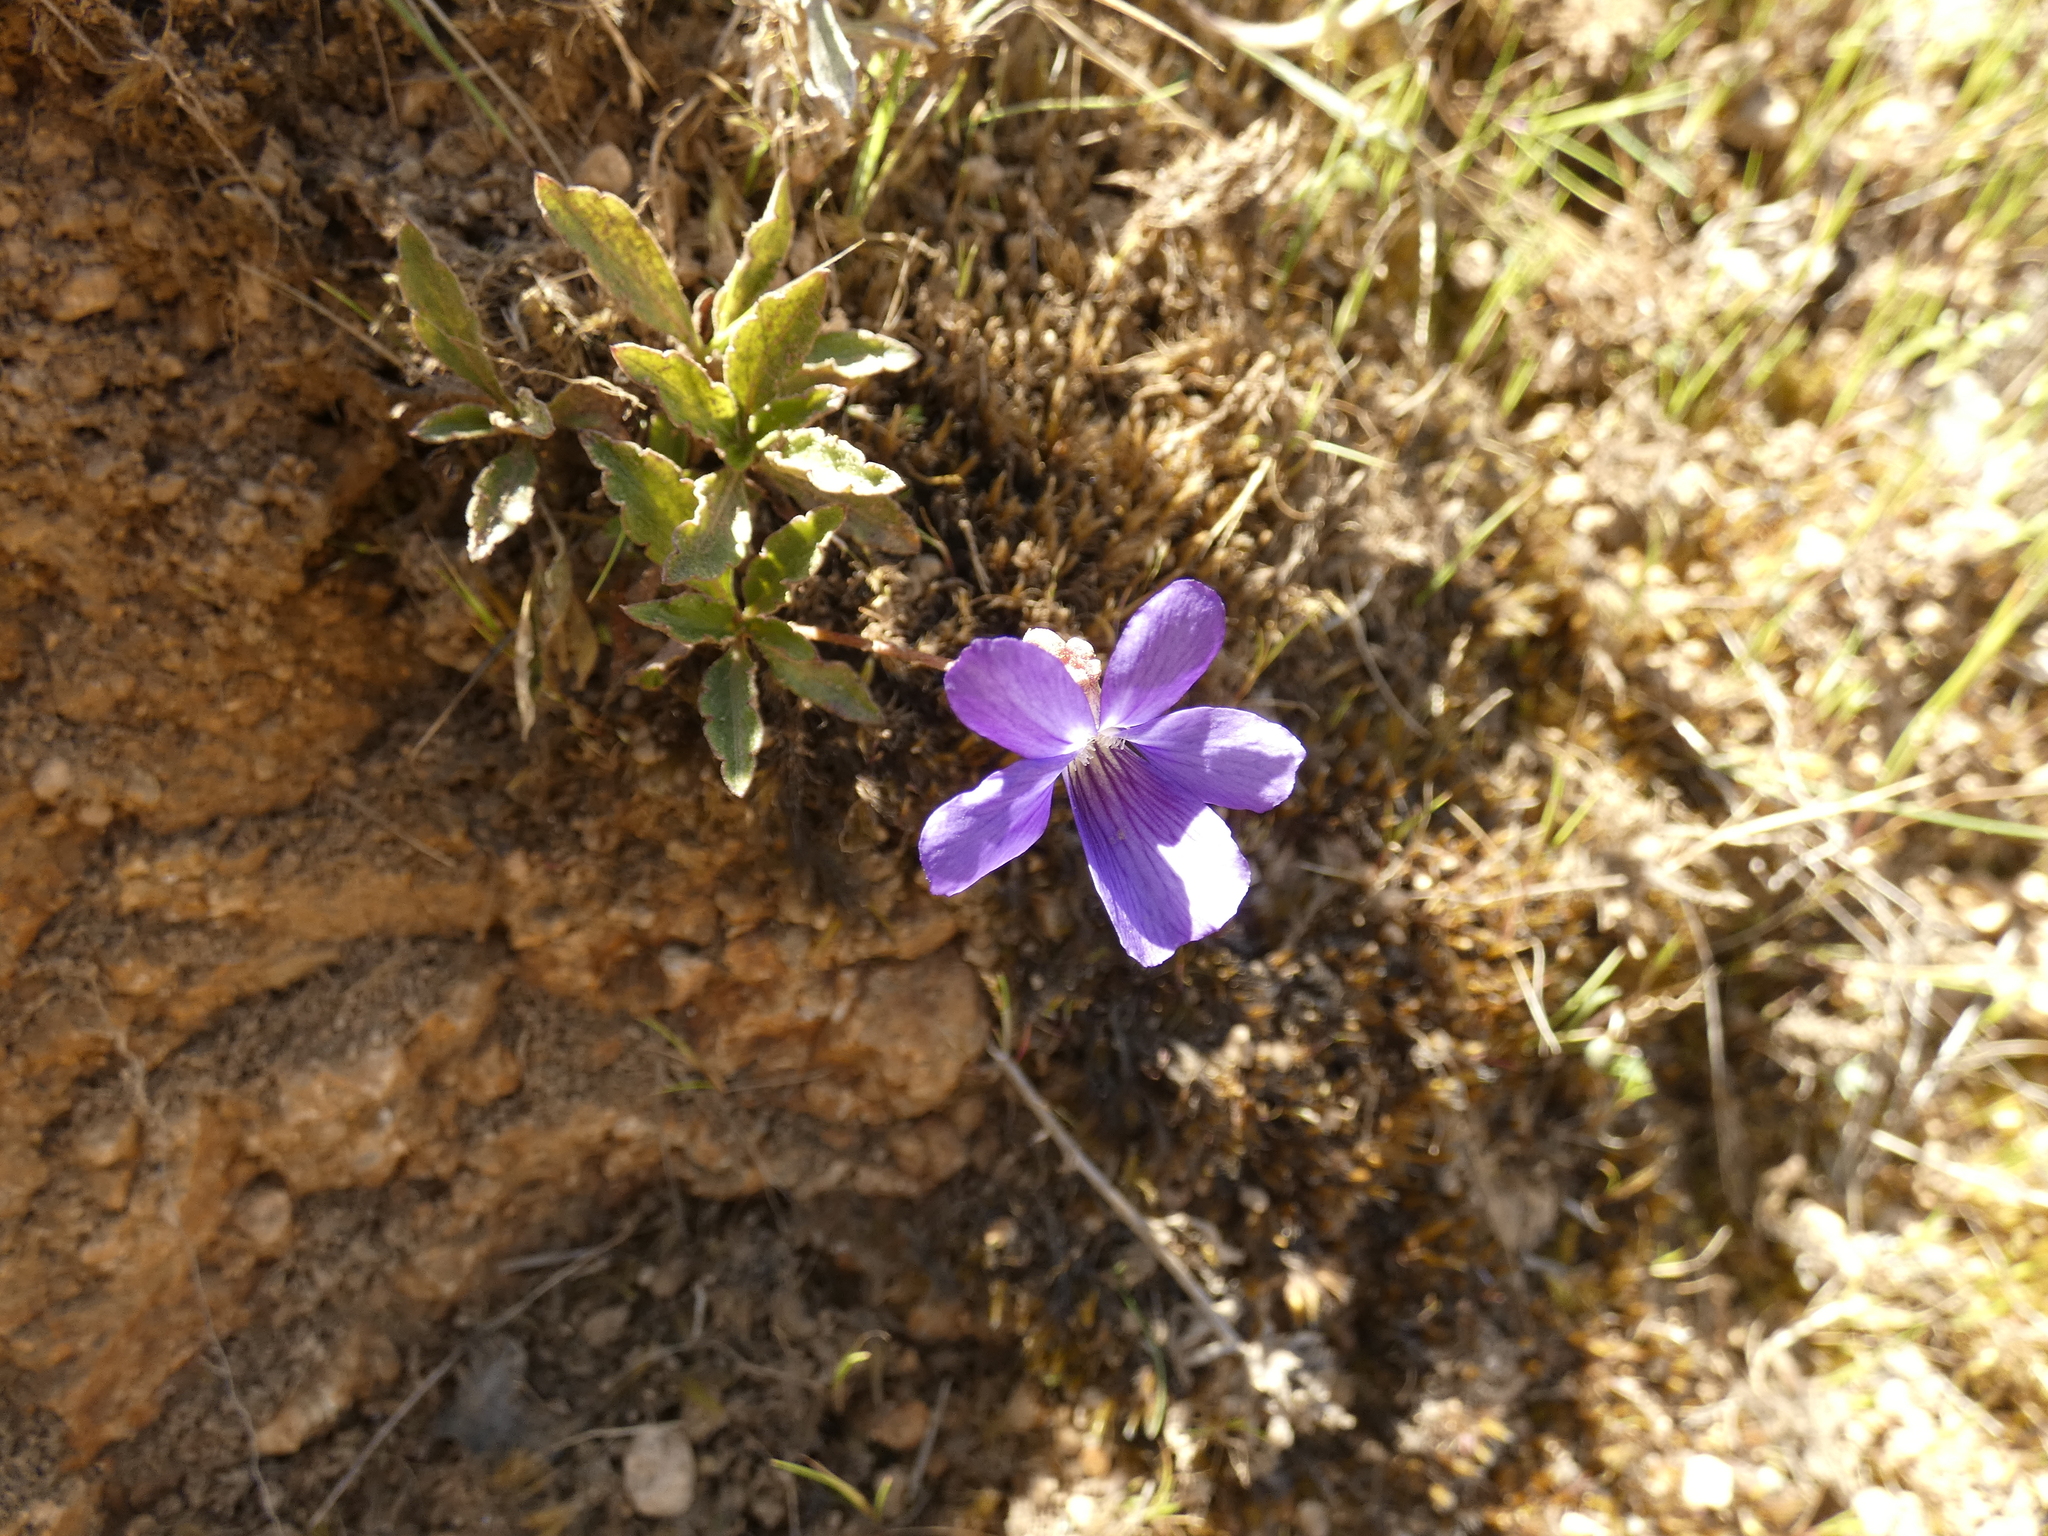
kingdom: Plantae
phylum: Tracheophyta
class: Magnoliopsida
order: Malpighiales
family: Violaceae
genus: Viola
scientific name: Viola portalesia
